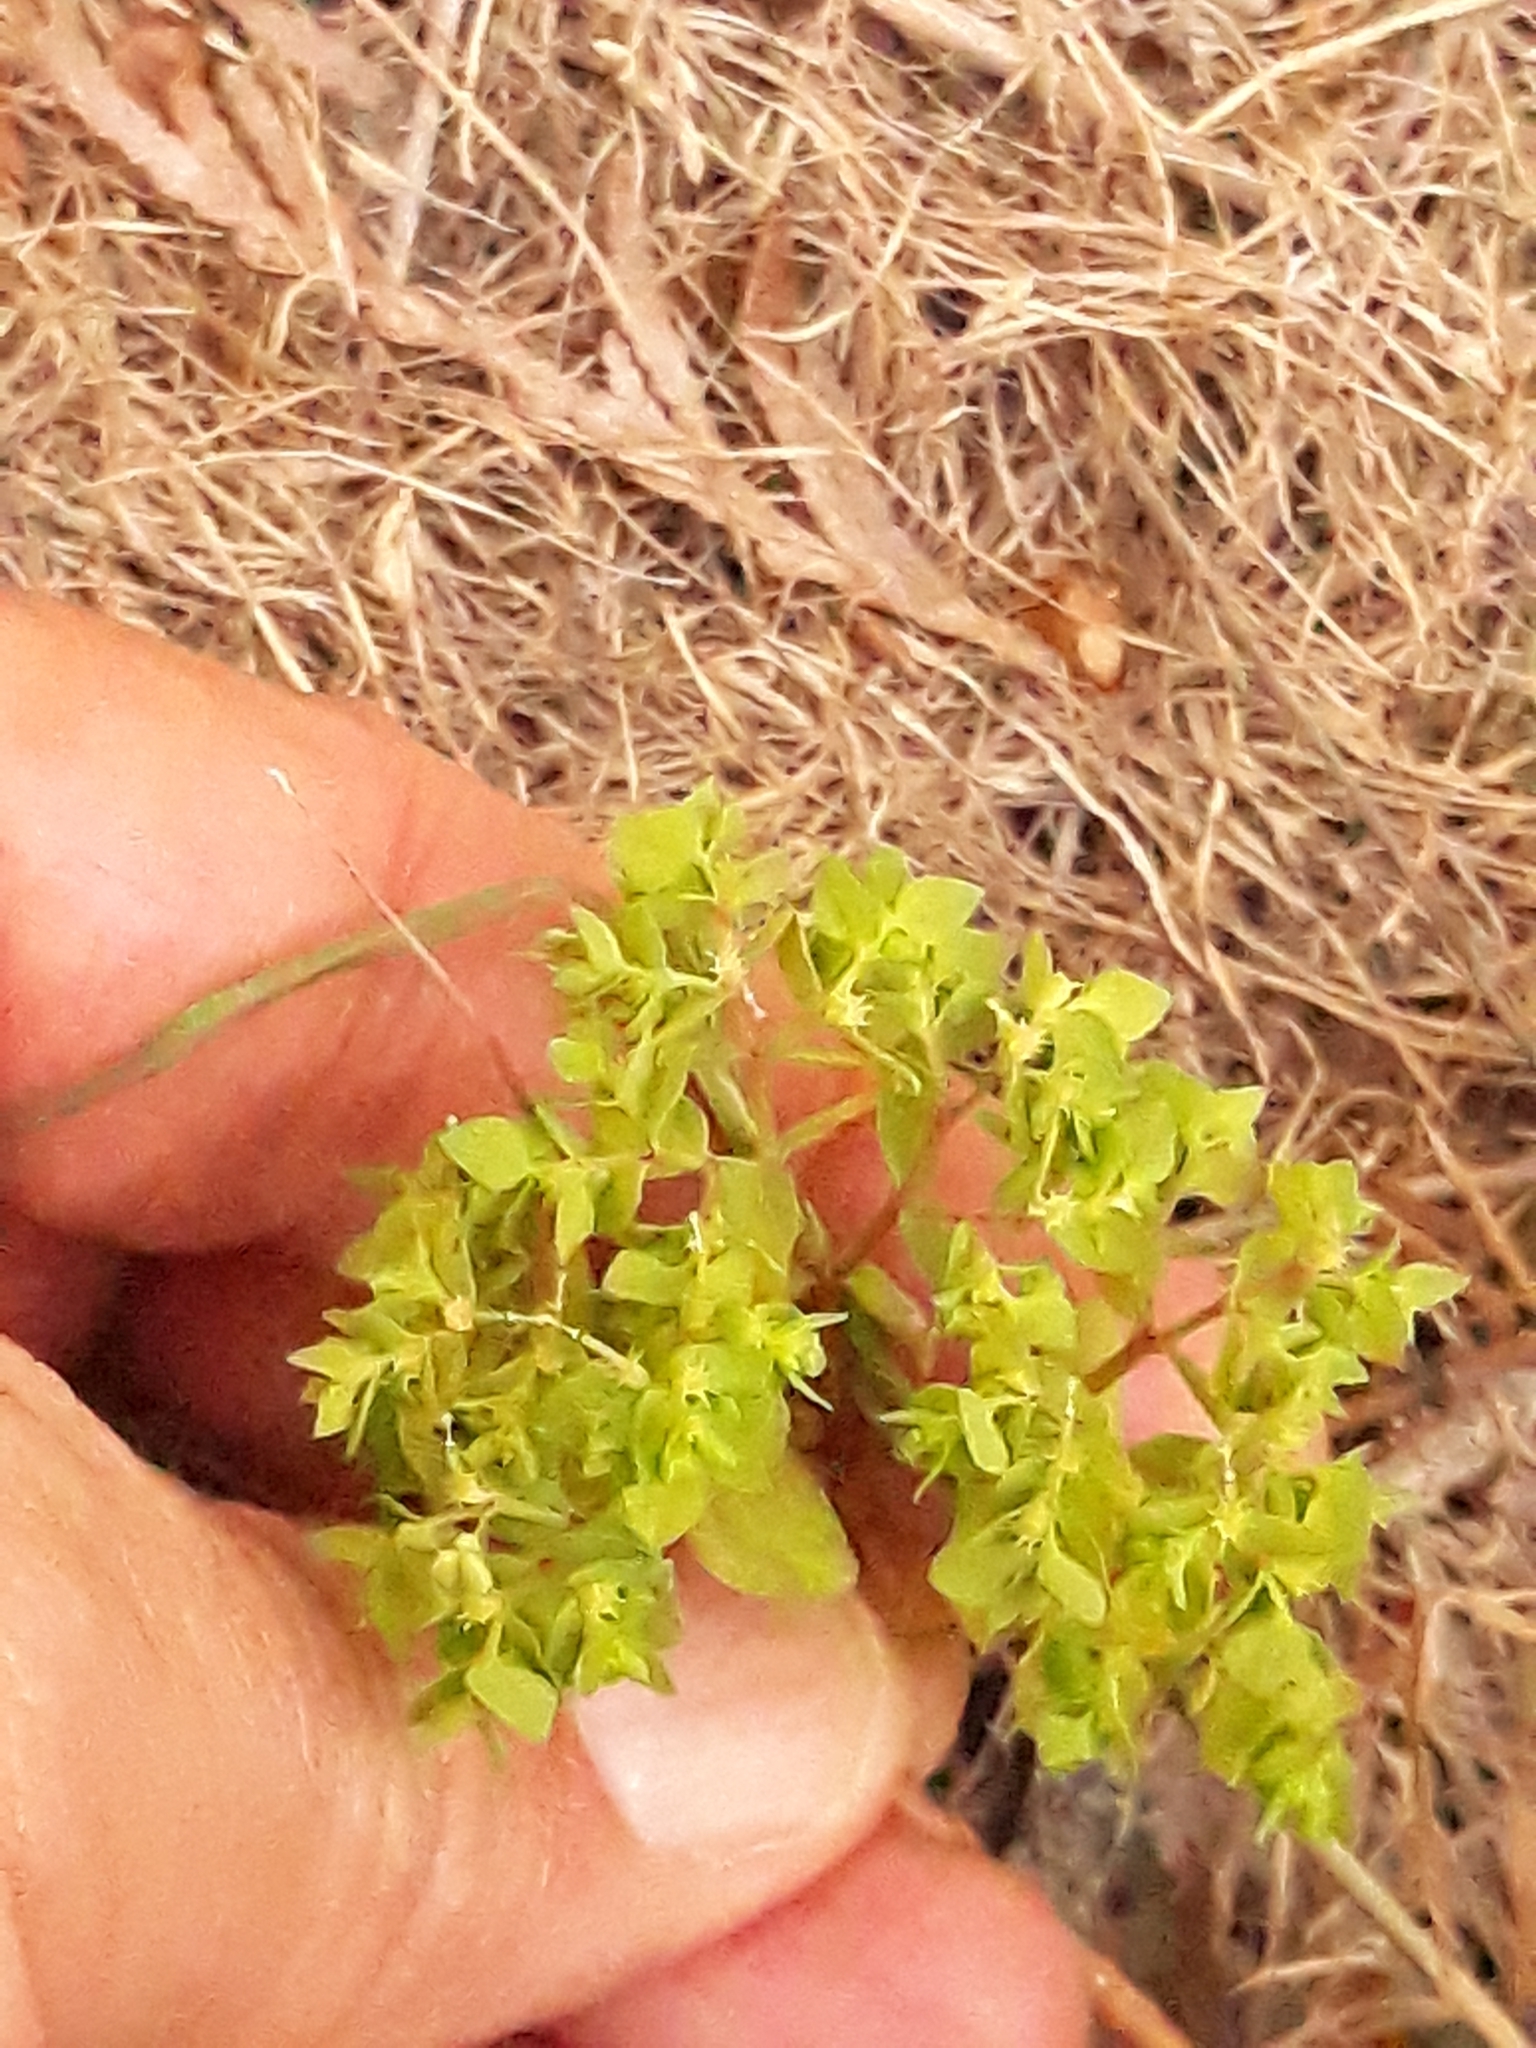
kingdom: Plantae
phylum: Tracheophyta
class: Magnoliopsida
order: Malpighiales
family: Euphorbiaceae
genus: Euphorbia
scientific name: Euphorbia peplus
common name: Petty spurge
